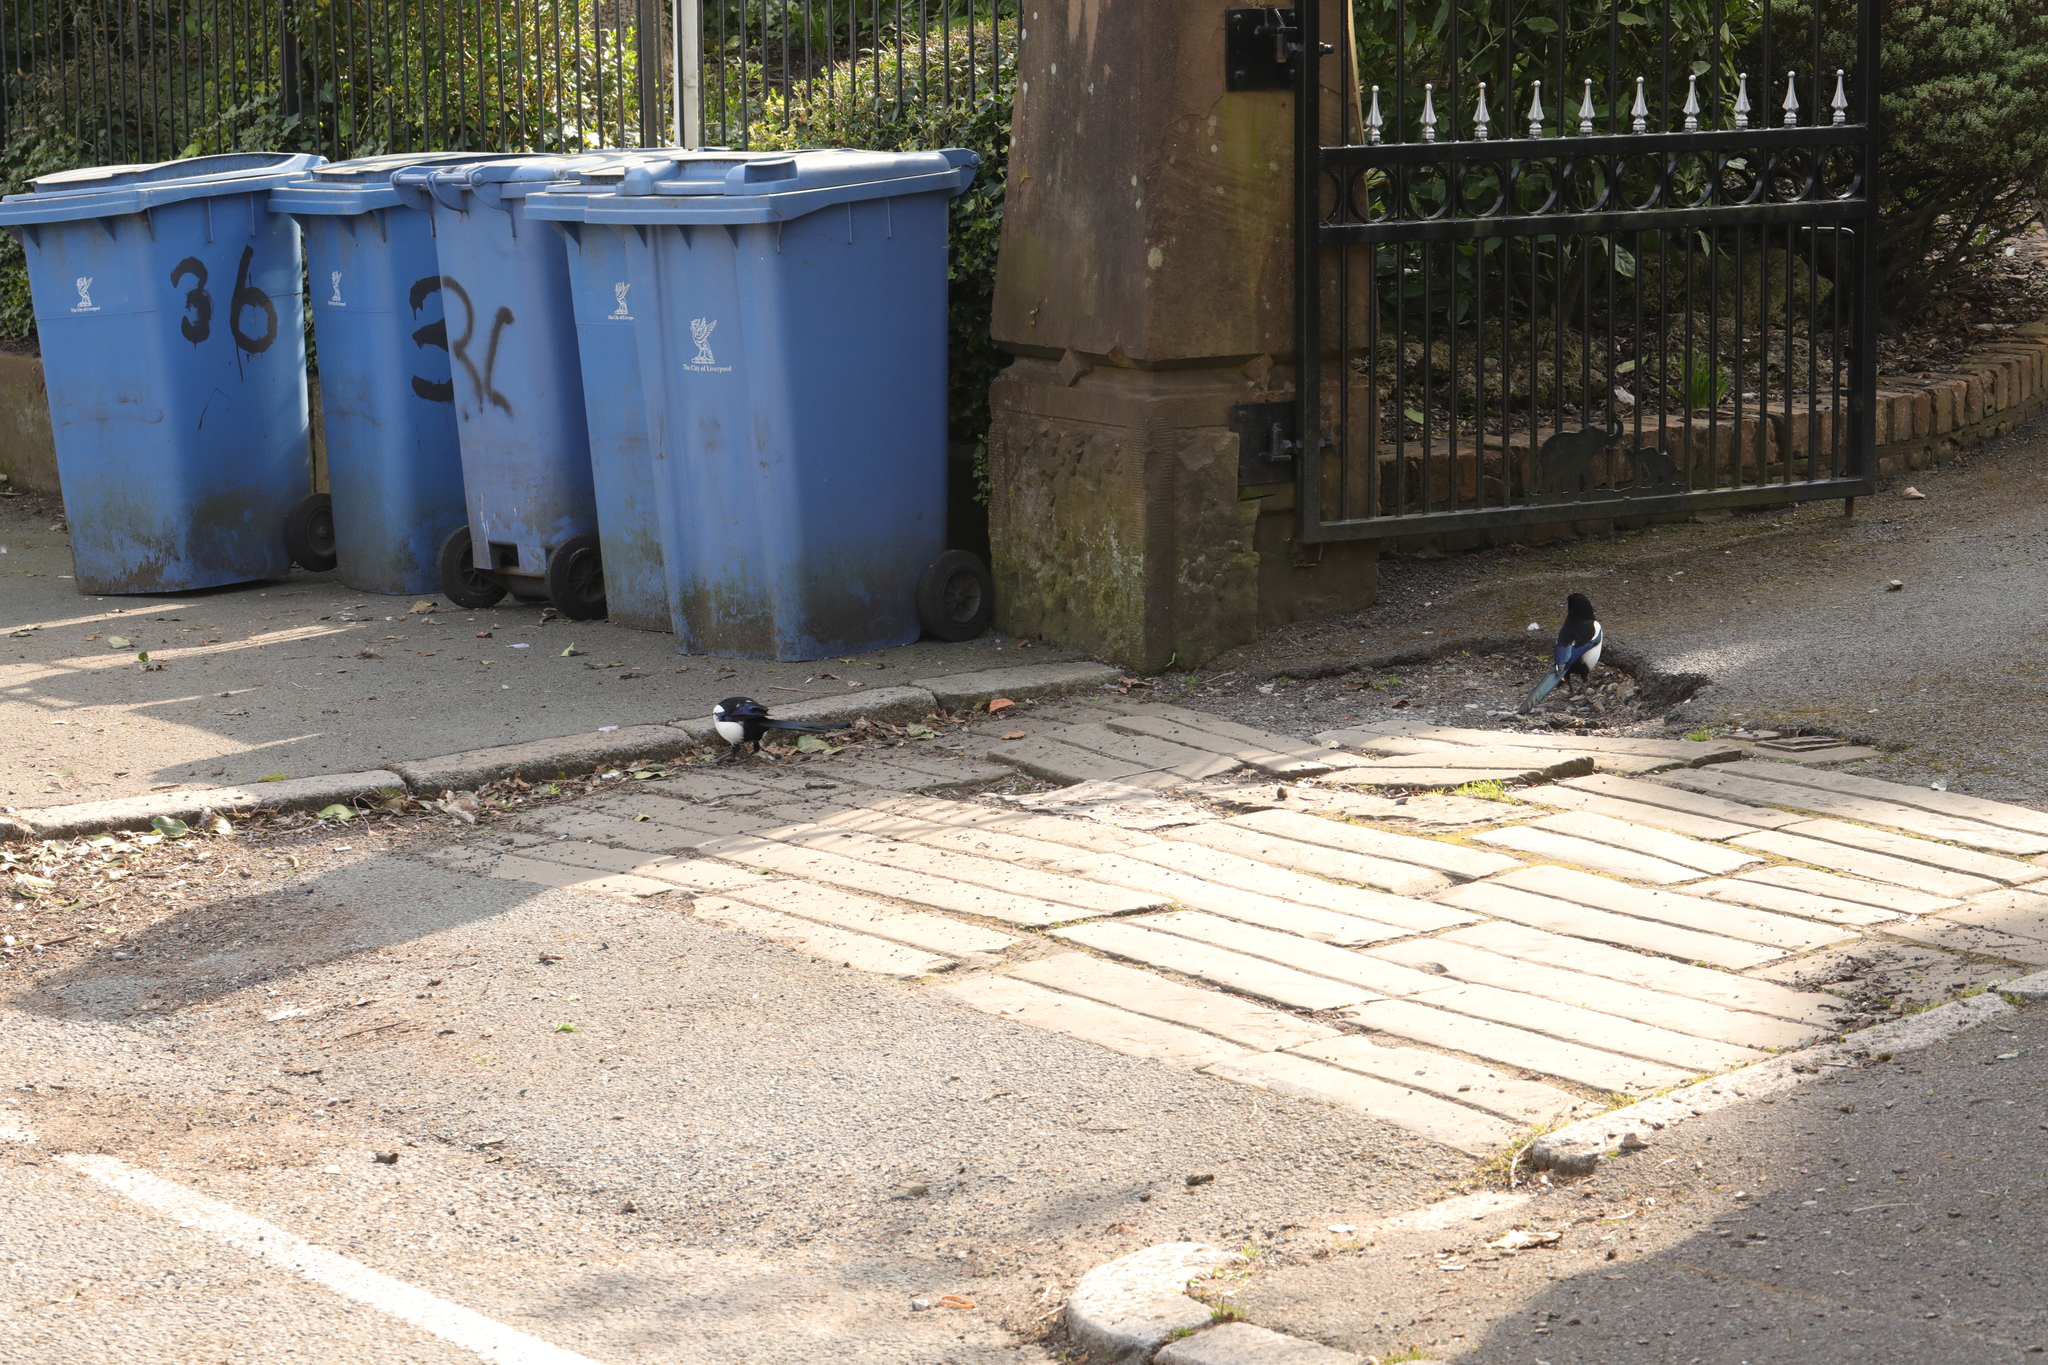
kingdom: Animalia
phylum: Chordata
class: Aves
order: Passeriformes
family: Corvidae
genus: Pica
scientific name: Pica pica
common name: Eurasian magpie
